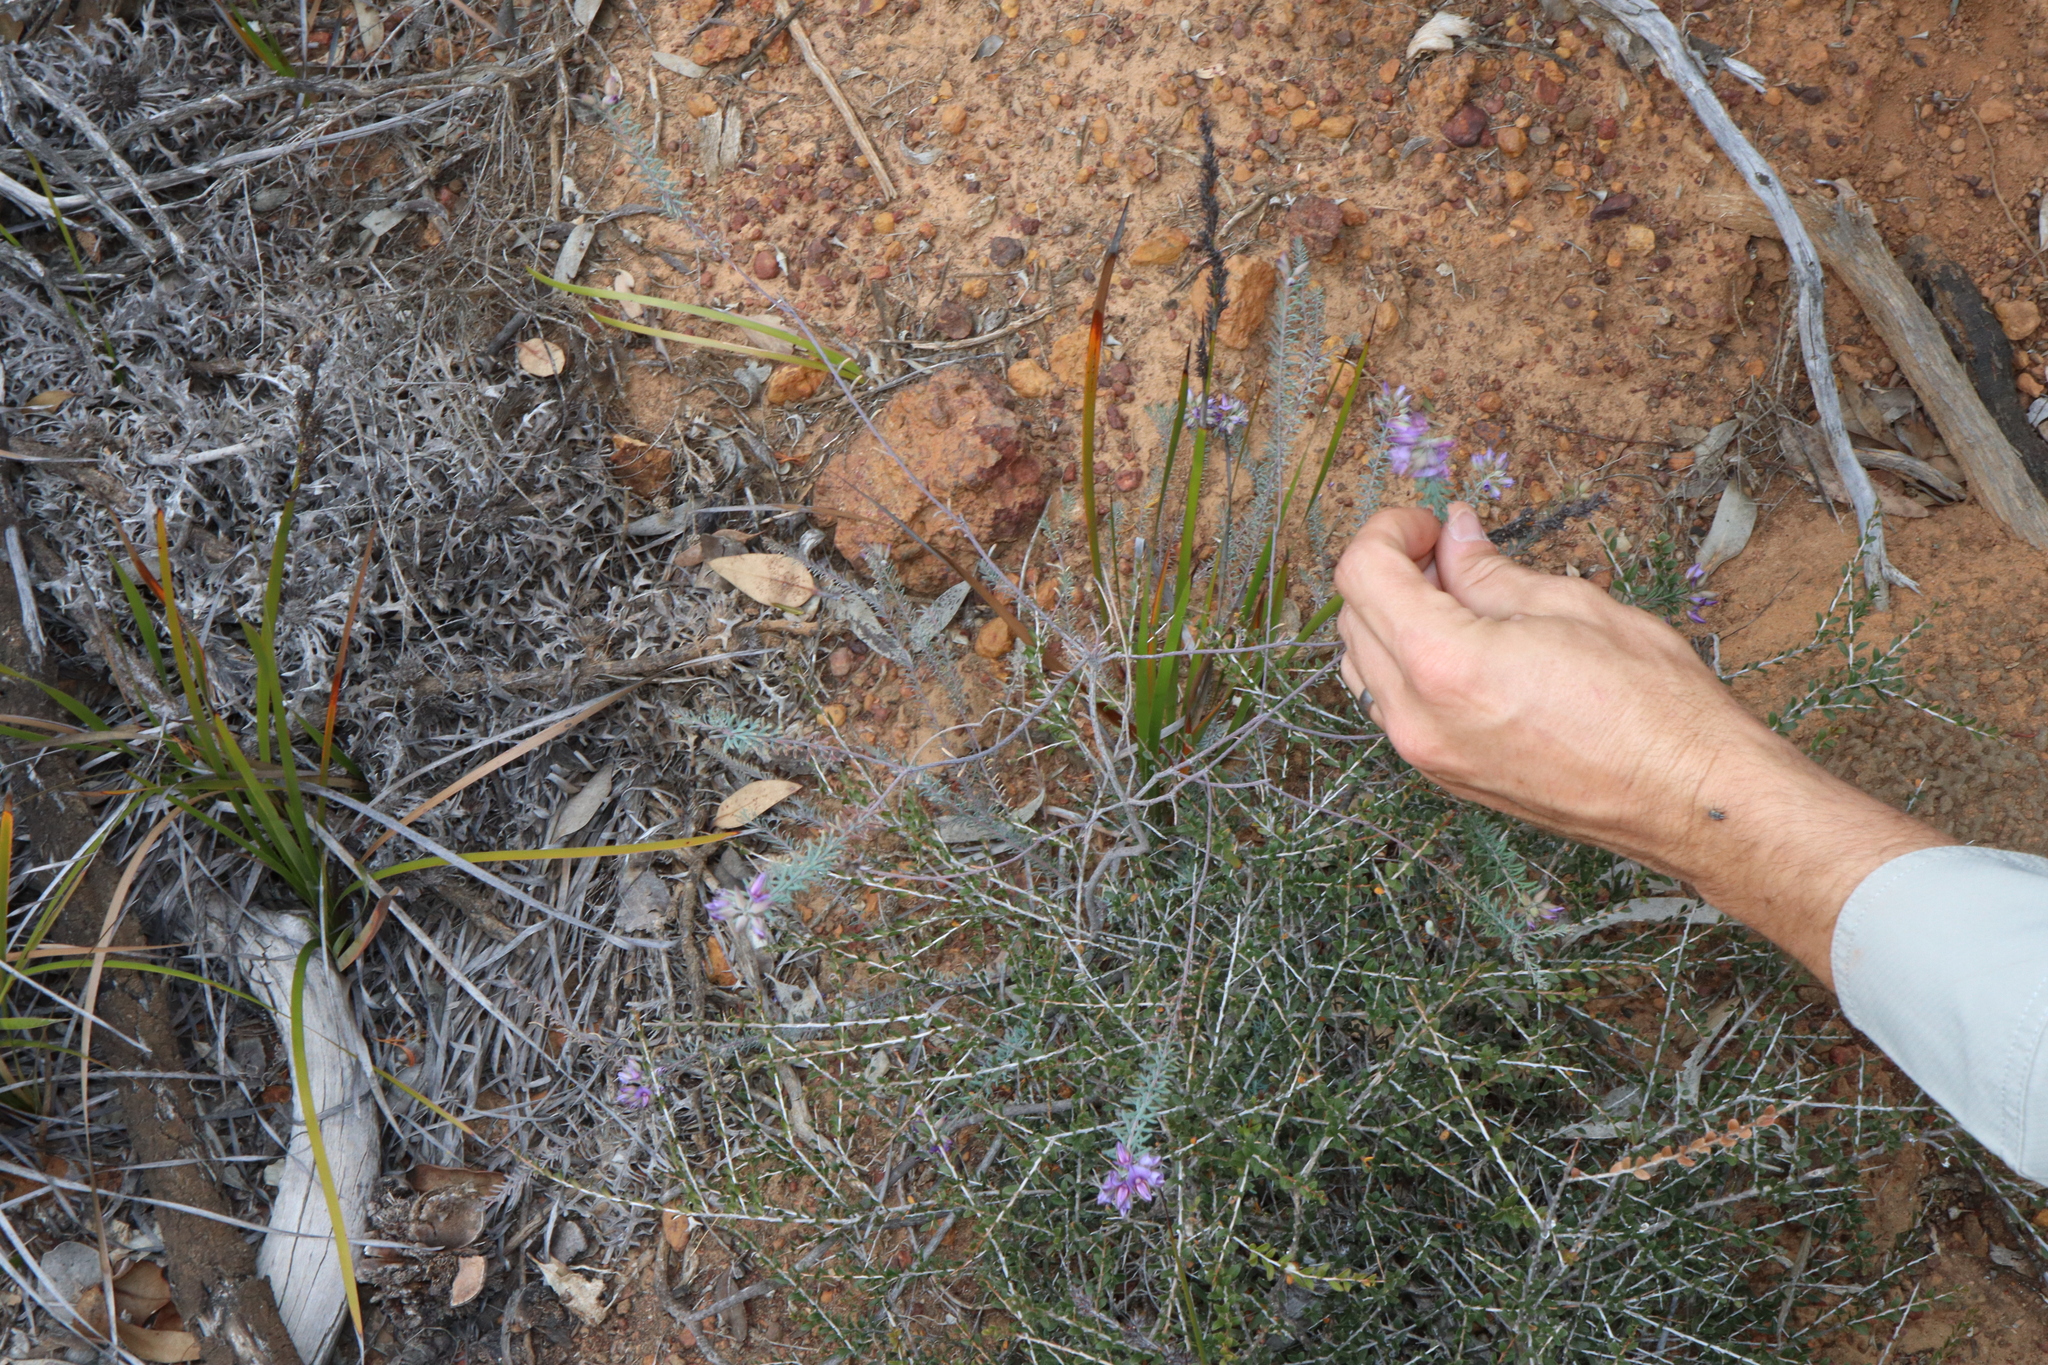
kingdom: Plantae
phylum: Tracheophyta
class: Magnoliopsida
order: Fabales
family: Fabaceae
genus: Gompholobium
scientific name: Gompholobium confertum
